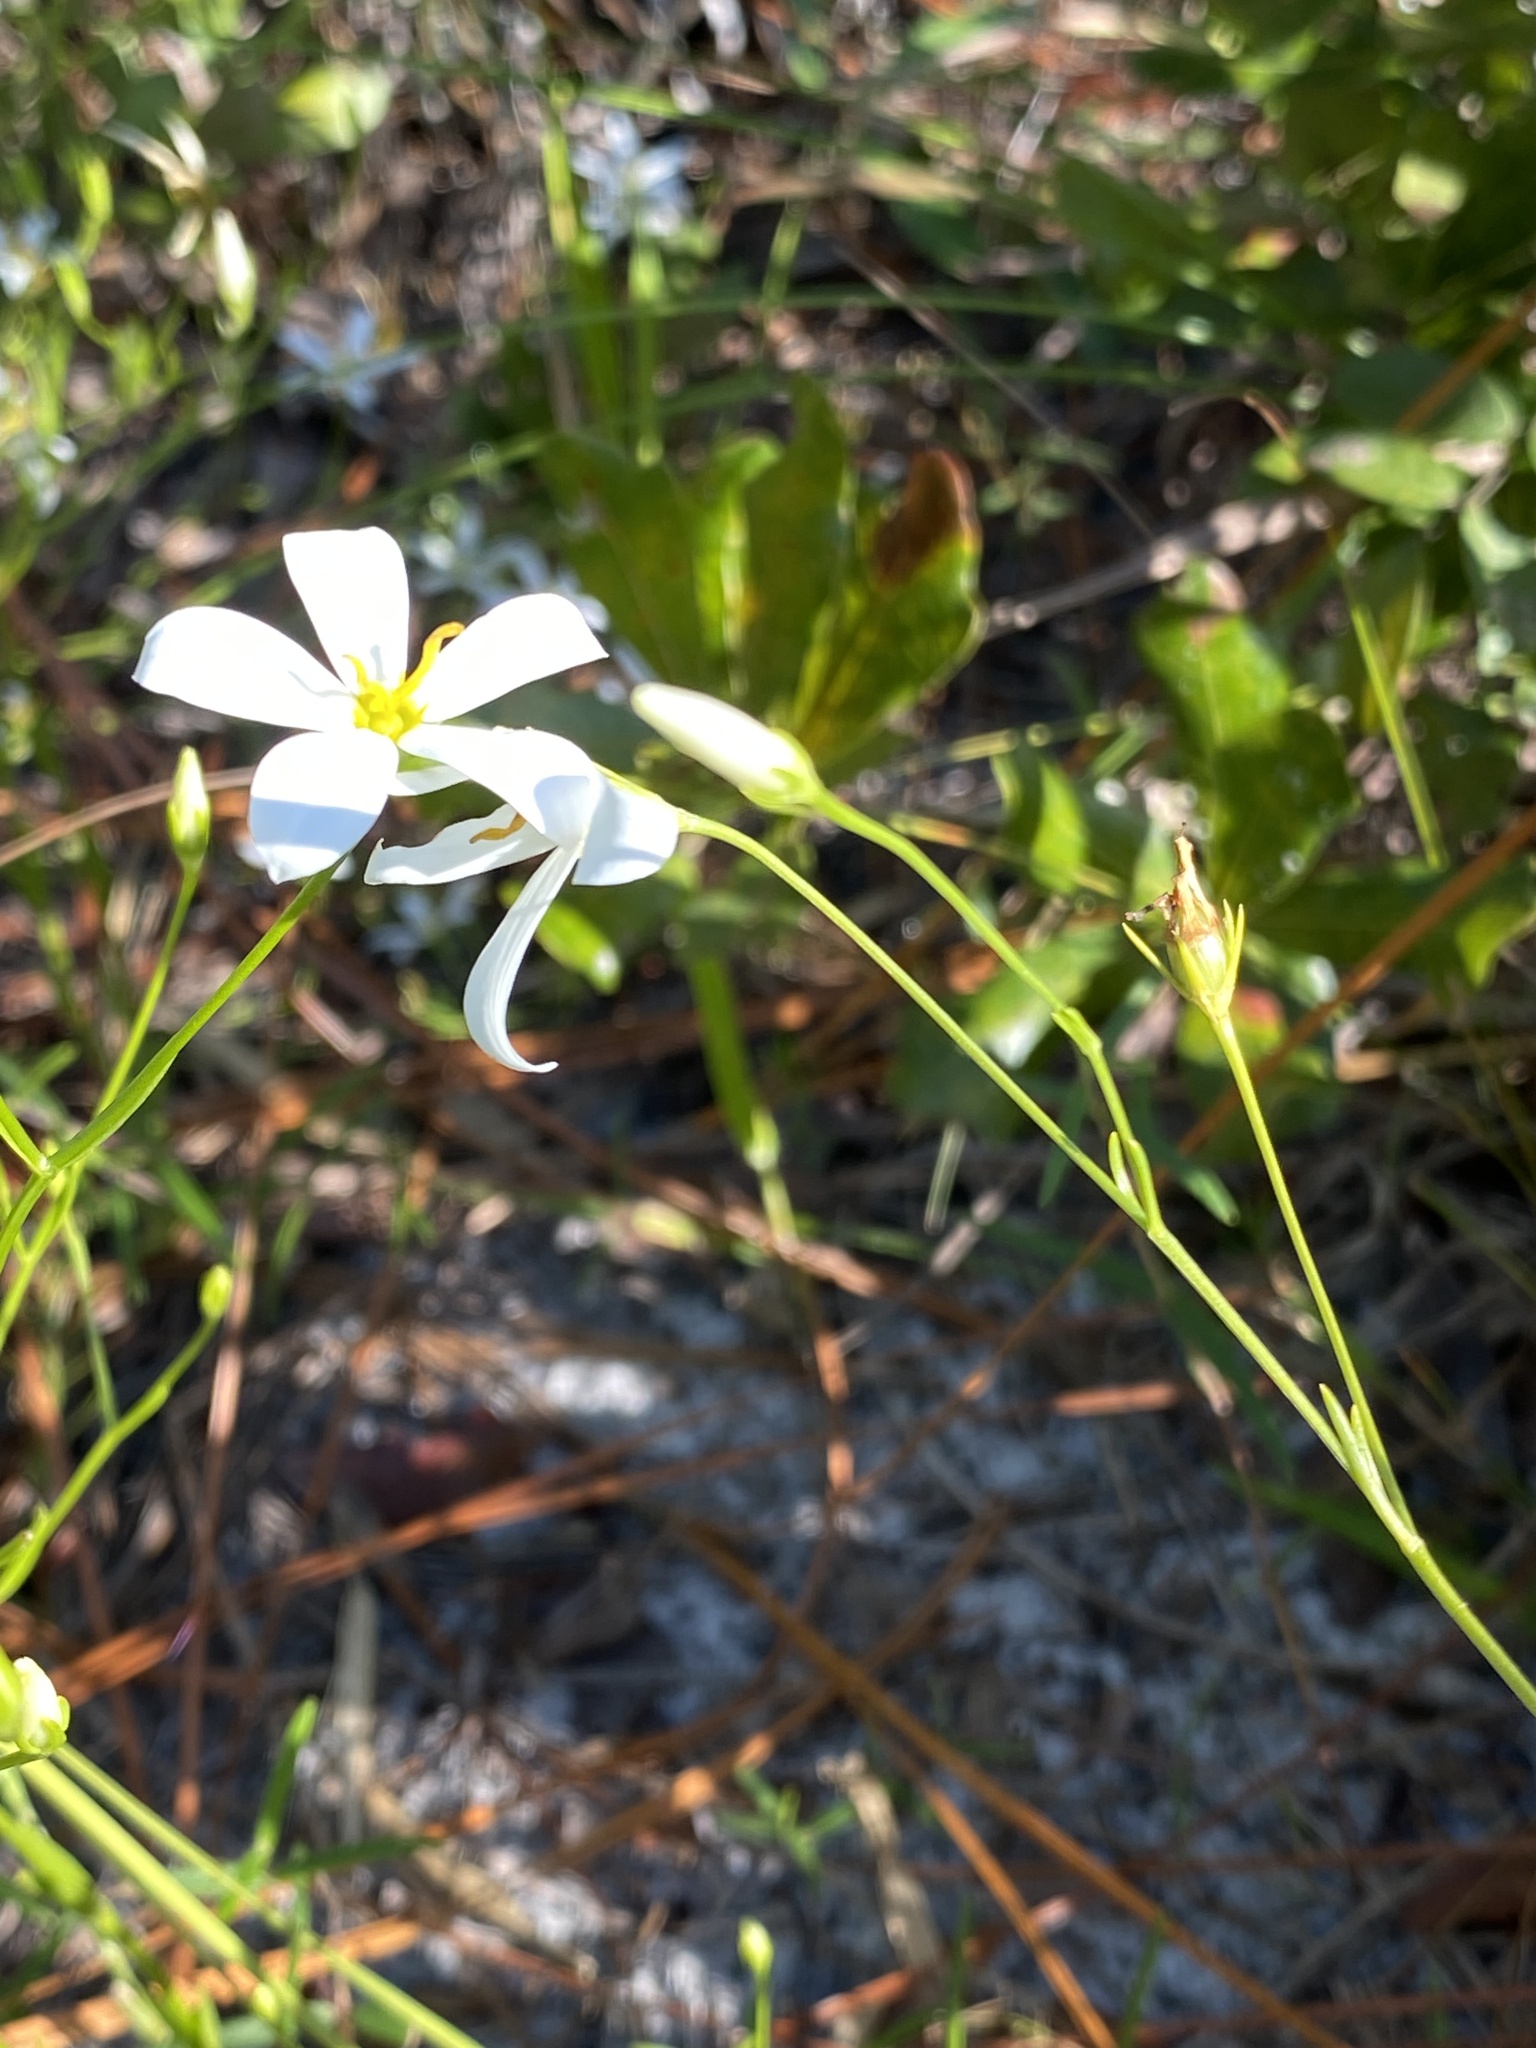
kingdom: Plantae
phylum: Tracheophyta
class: Magnoliopsida
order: Gentianales
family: Gentianaceae
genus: Sabatia
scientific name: Sabatia brevifolia
